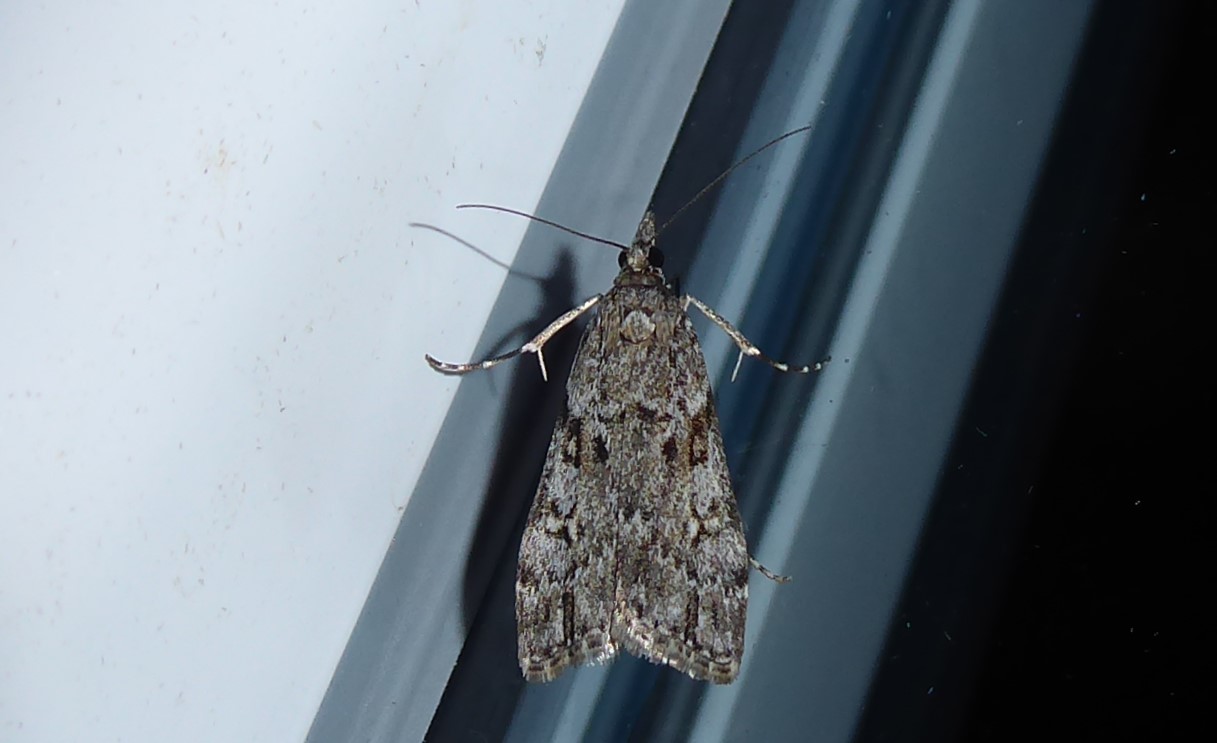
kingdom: Animalia
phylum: Arthropoda
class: Insecta
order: Lepidoptera
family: Crambidae
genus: Eudonia
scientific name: Eudonia cymatias
